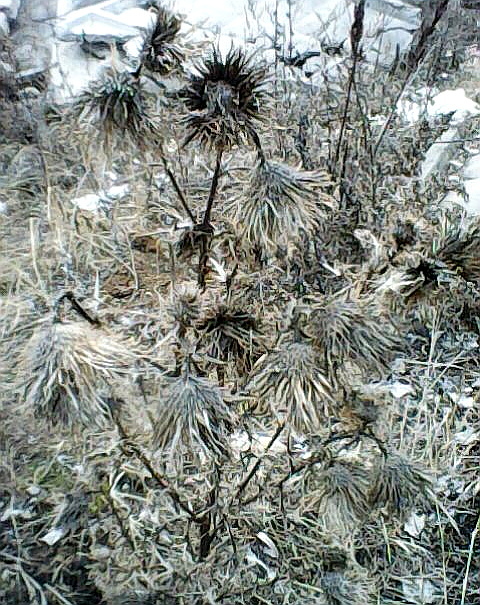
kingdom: Plantae
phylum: Tracheophyta
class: Magnoliopsida
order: Asterales
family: Asteraceae
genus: Cirsium
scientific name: Cirsium vulgare
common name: Bull thistle
